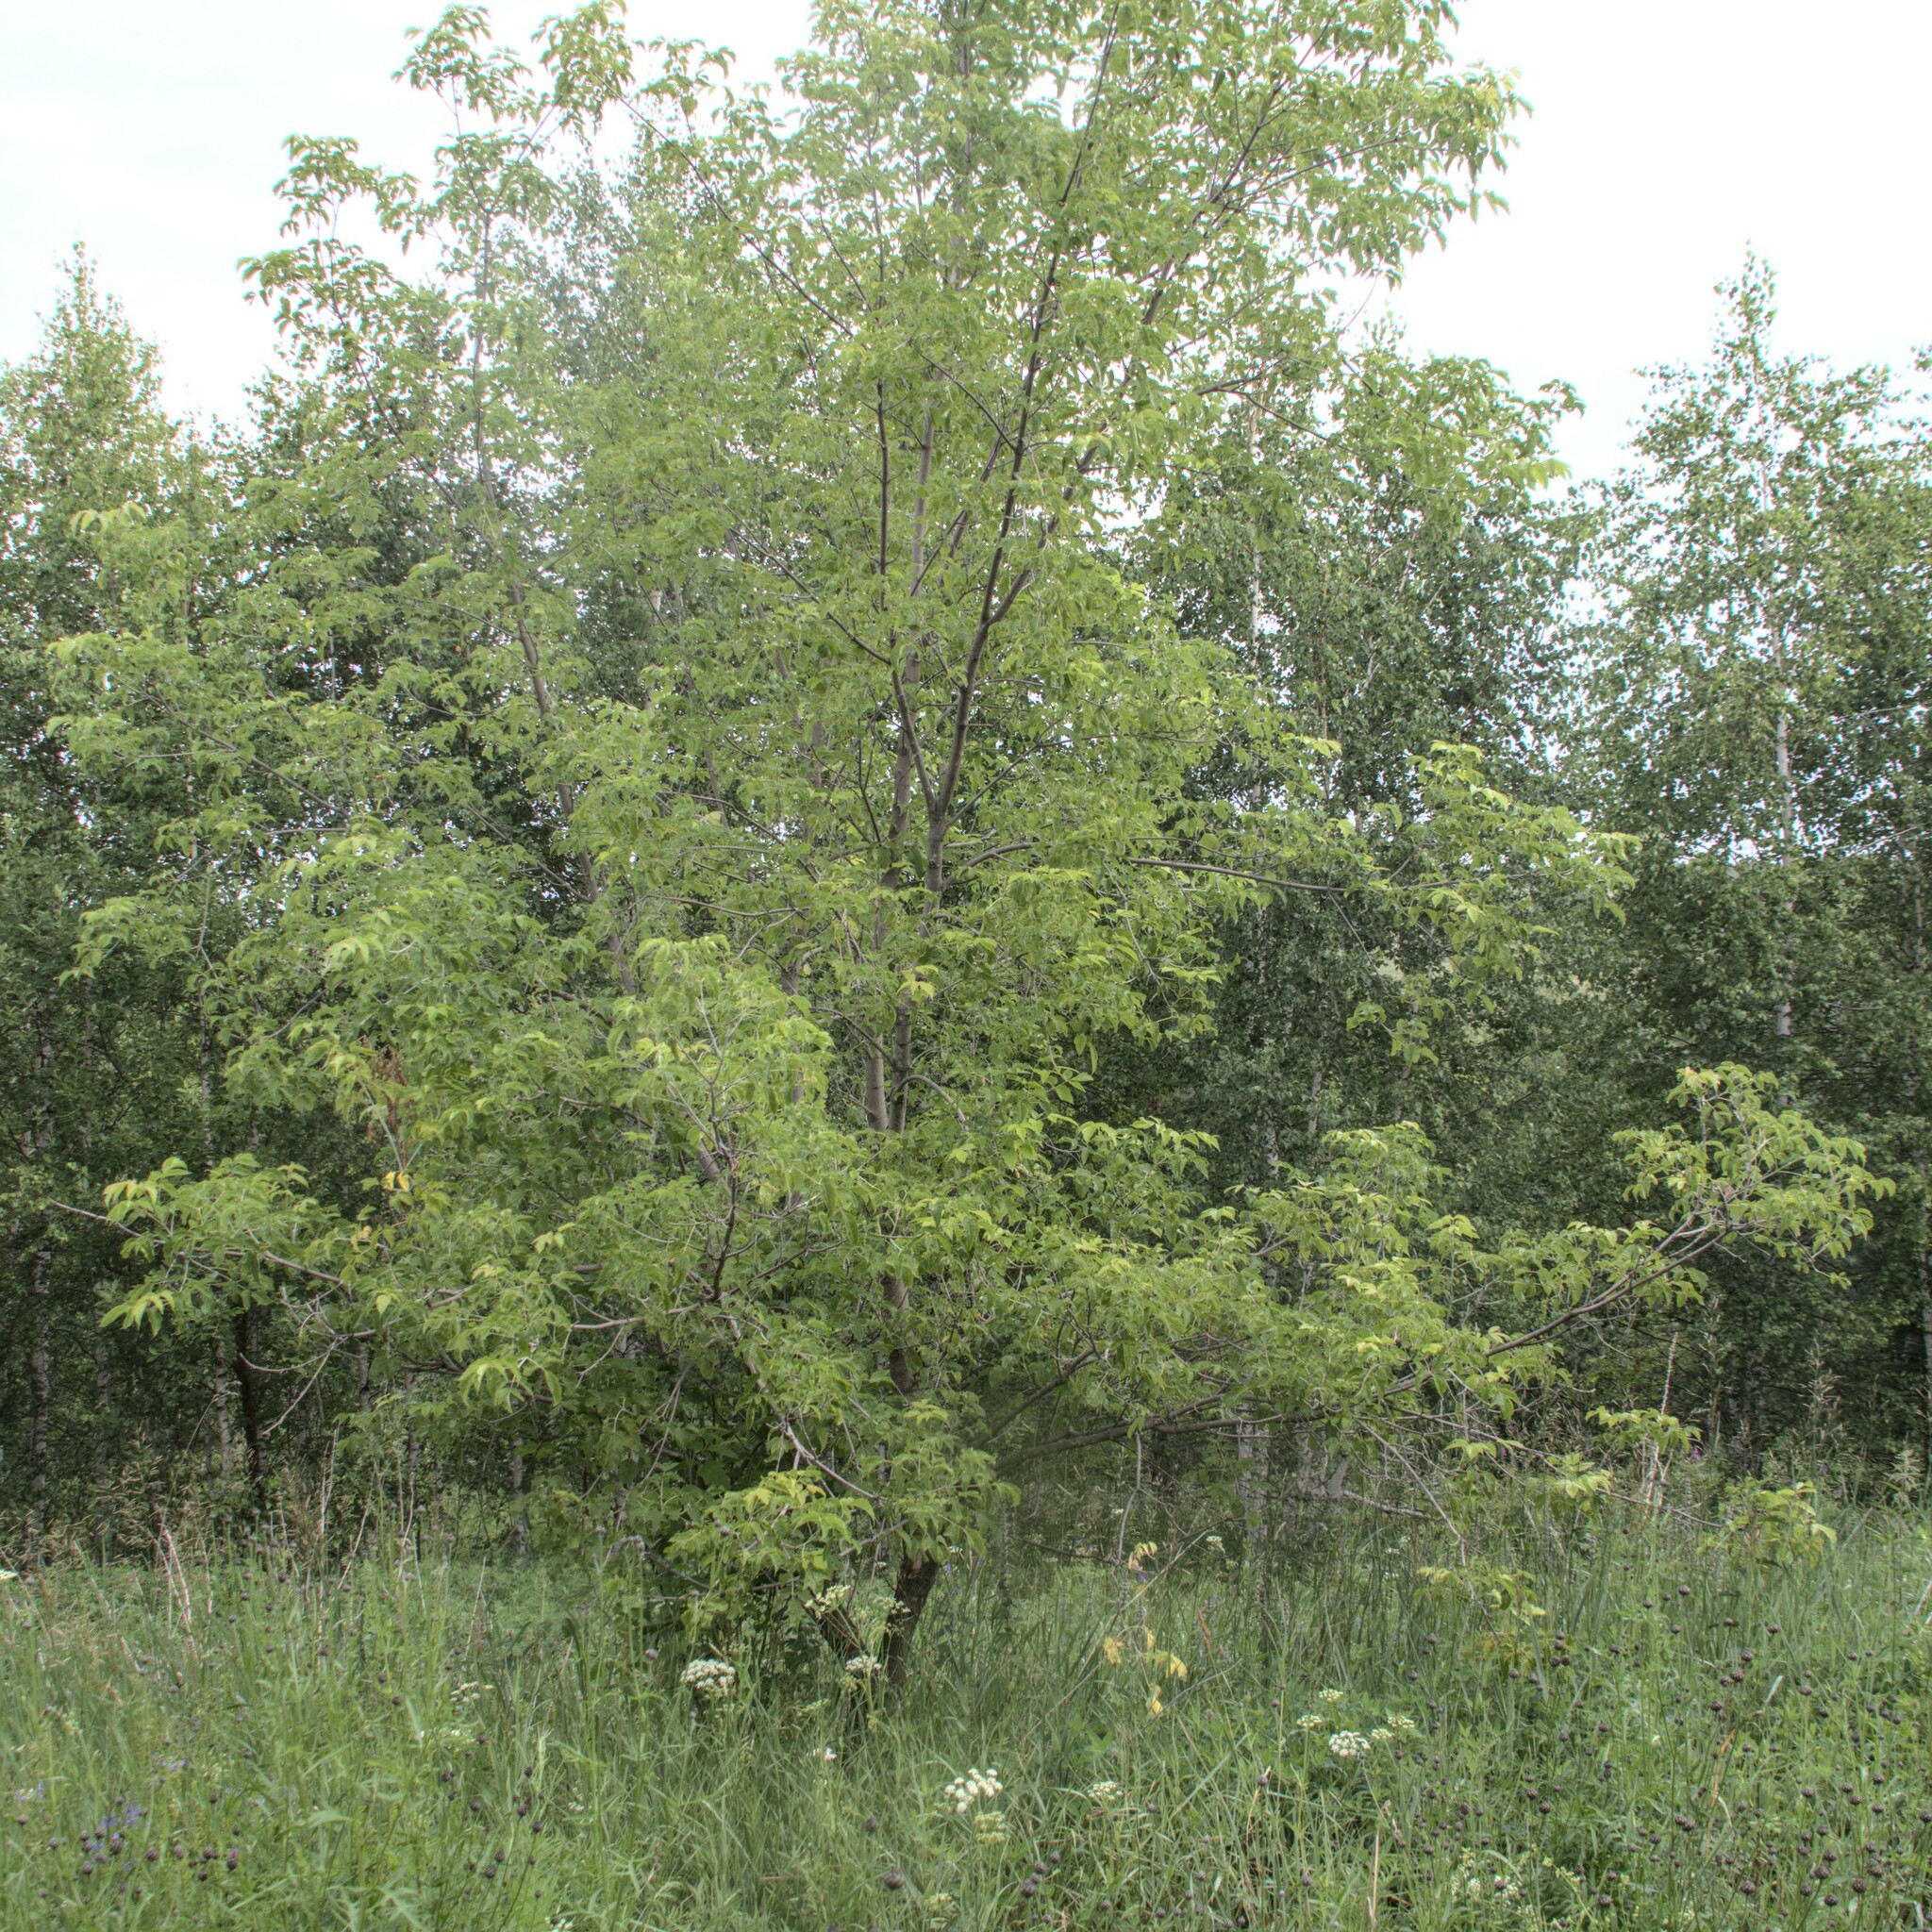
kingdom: Plantae
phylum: Tracheophyta
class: Magnoliopsida
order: Sapindales
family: Sapindaceae
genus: Acer
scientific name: Acer negundo
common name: Ashleaf maple
